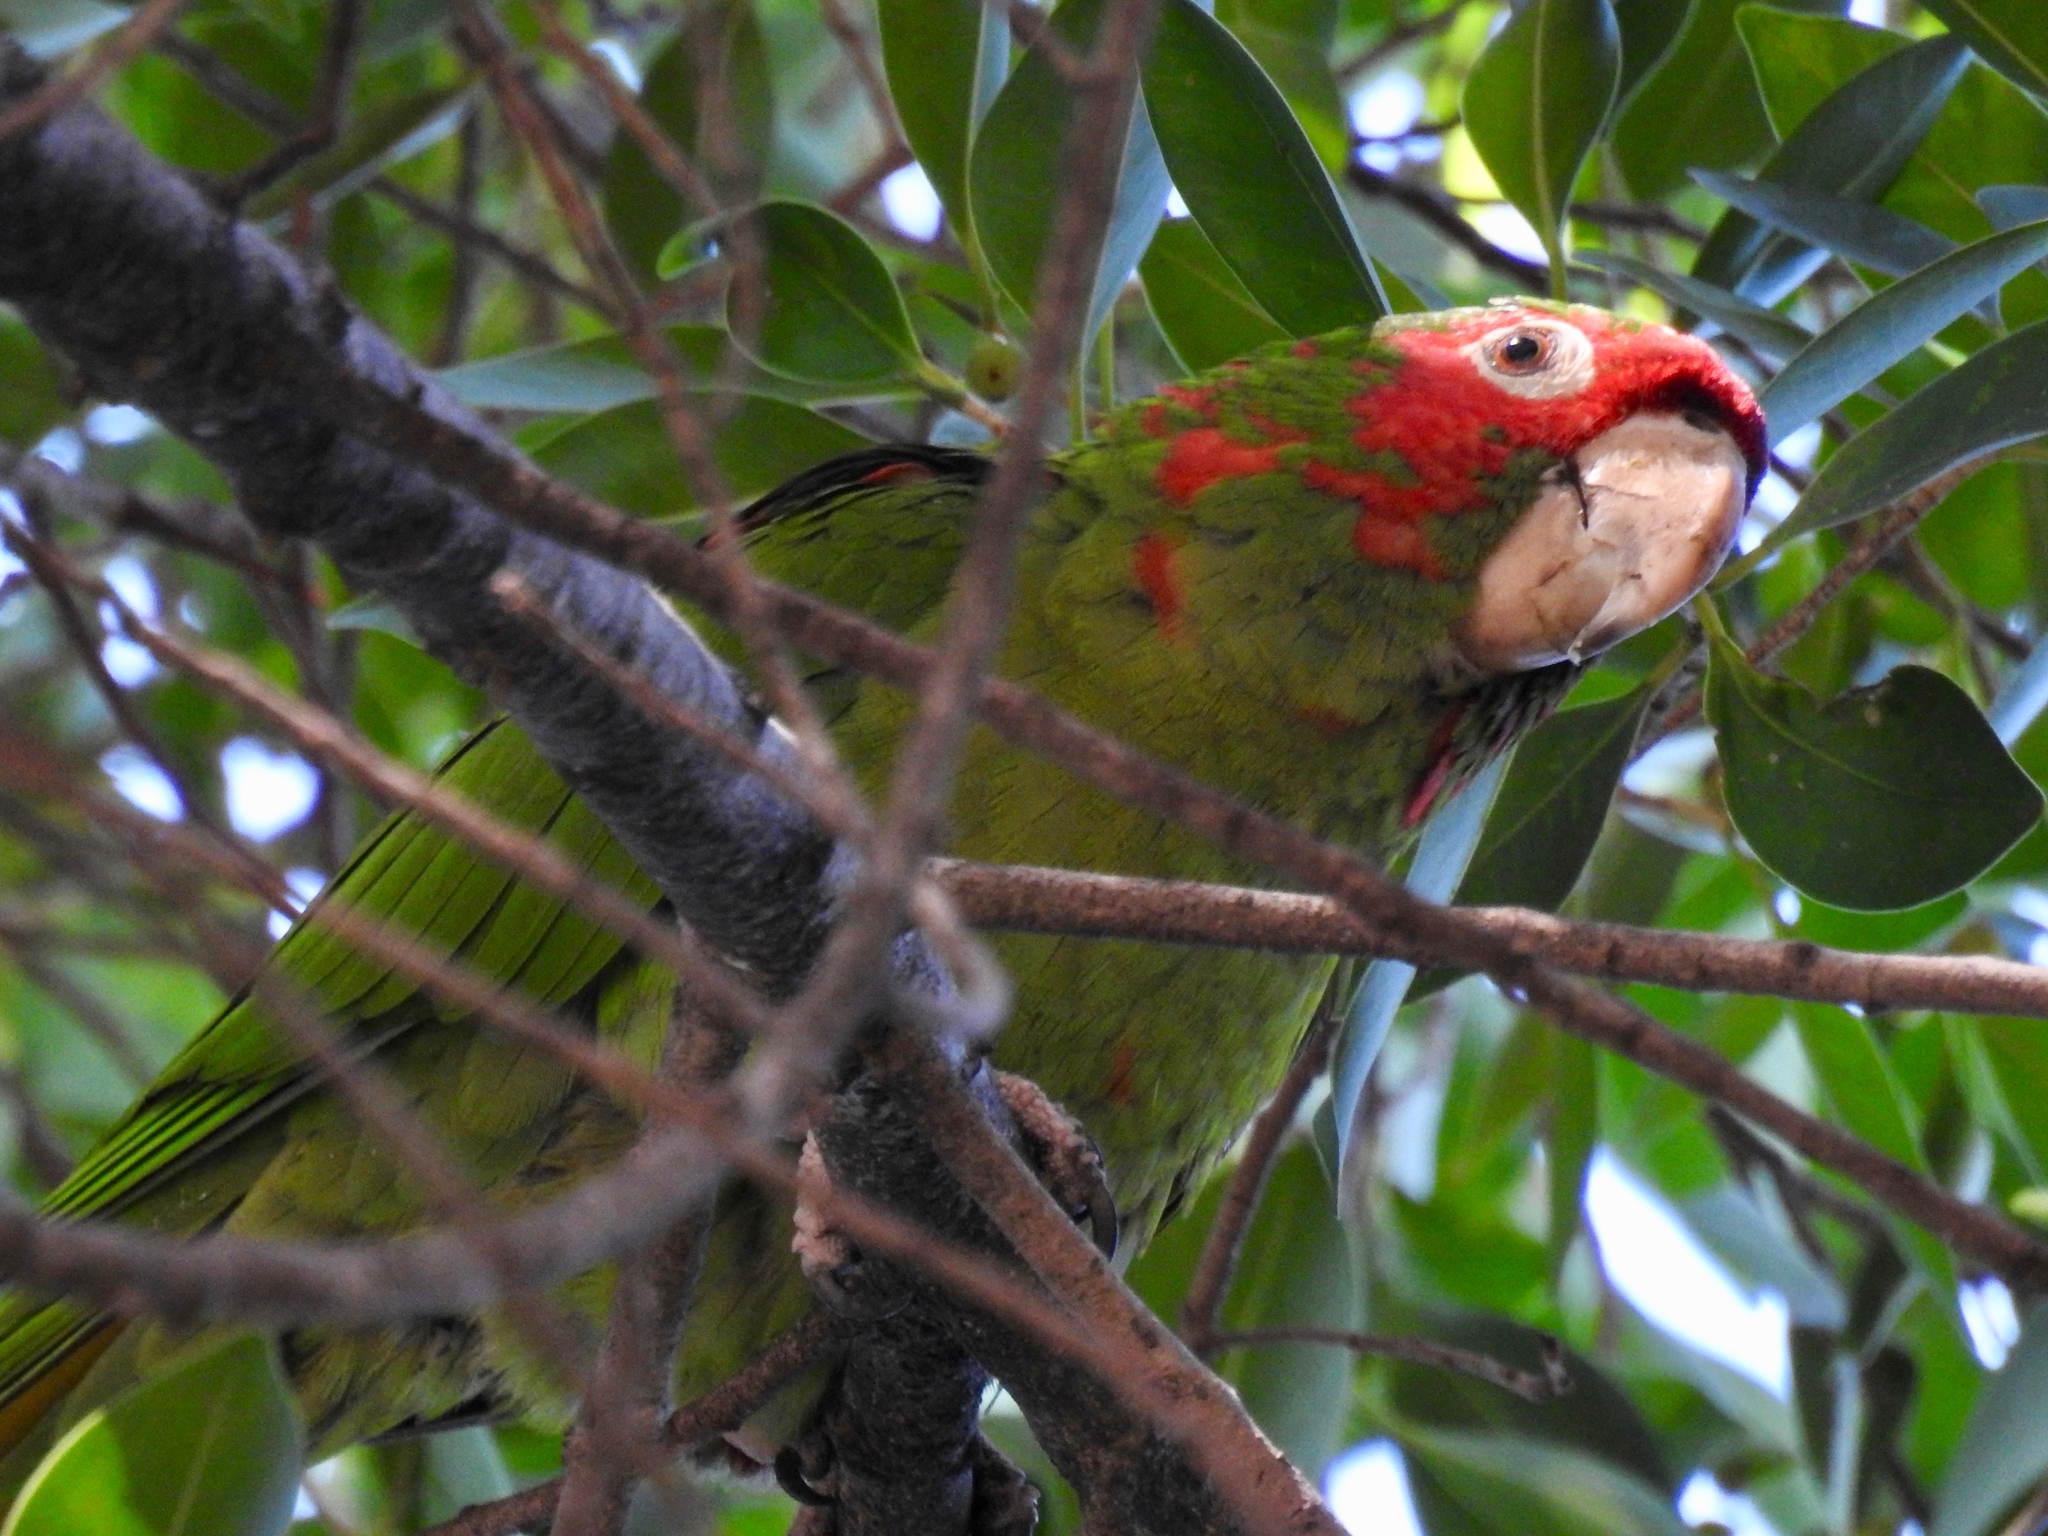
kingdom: Animalia
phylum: Chordata
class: Aves
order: Psittaciformes
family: Psittacidae
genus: Aratinga
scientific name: Aratinga mitrata
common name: Mitred parakeet
